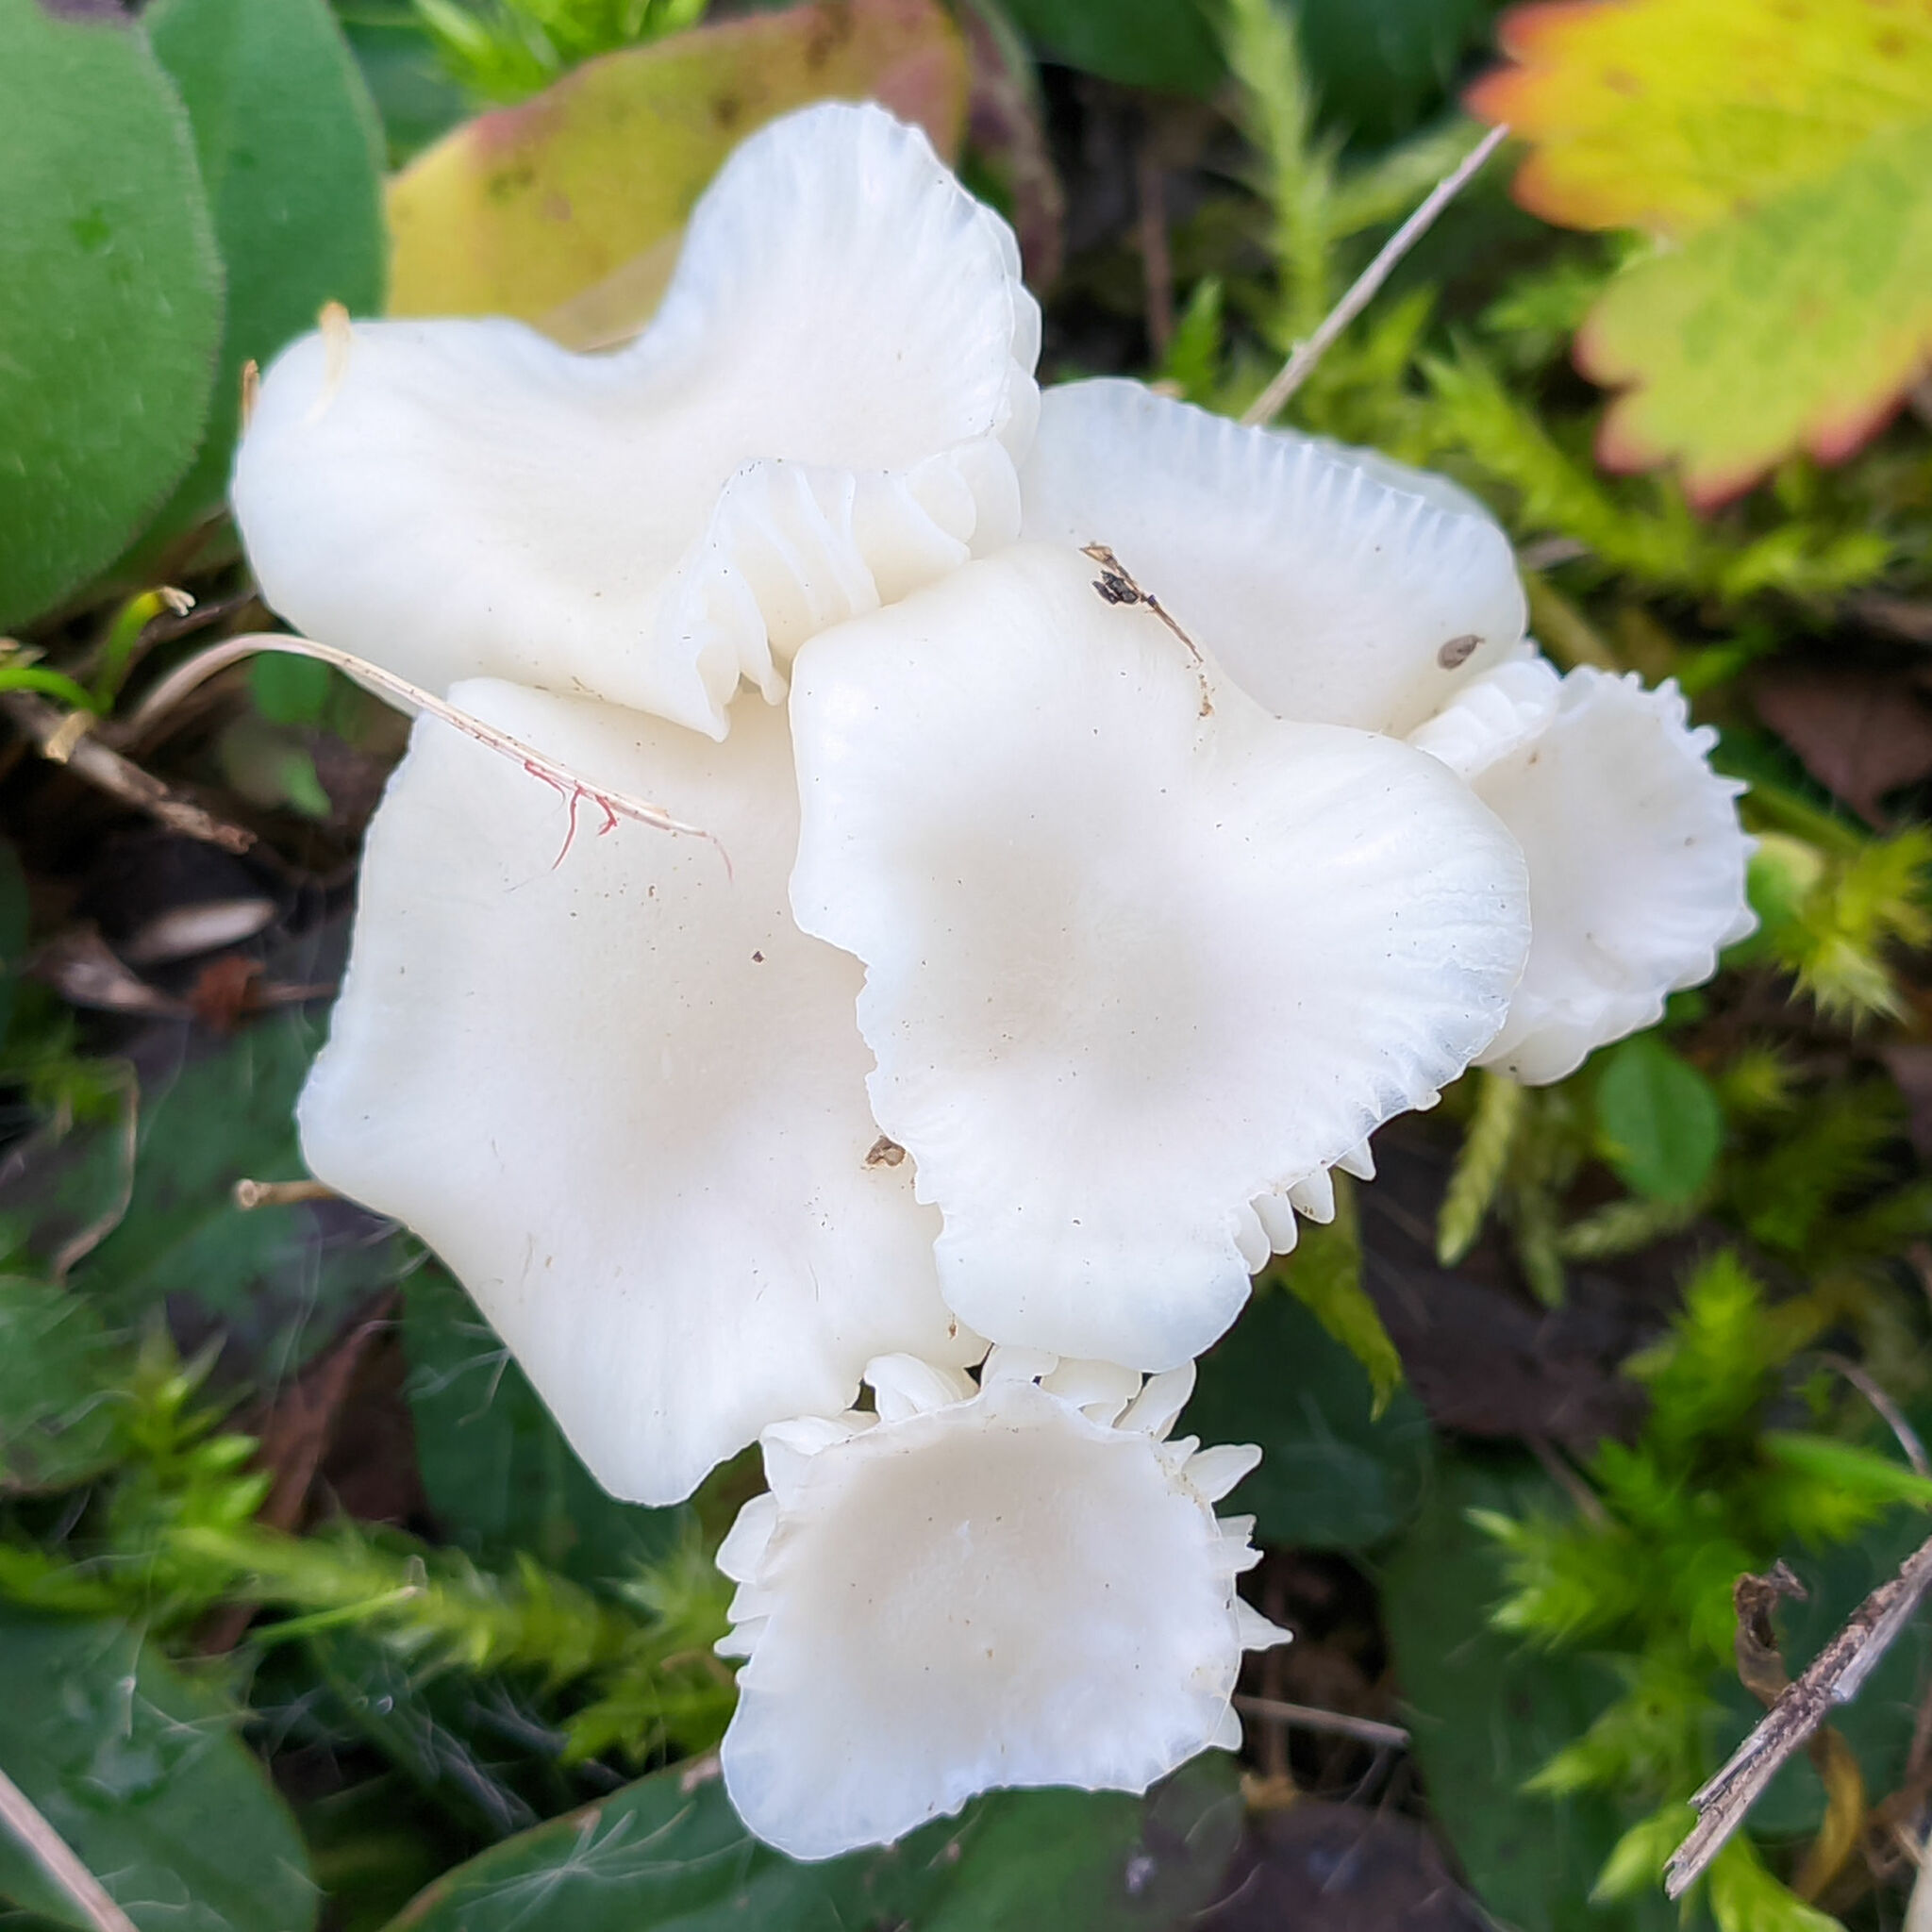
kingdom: Fungi
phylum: Basidiomycota
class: Agaricomycetes
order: Agaricales
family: Hygrophoraceae
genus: Cuphophyllus
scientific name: Cuphophyllus virgineus
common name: Snowy waxcap
